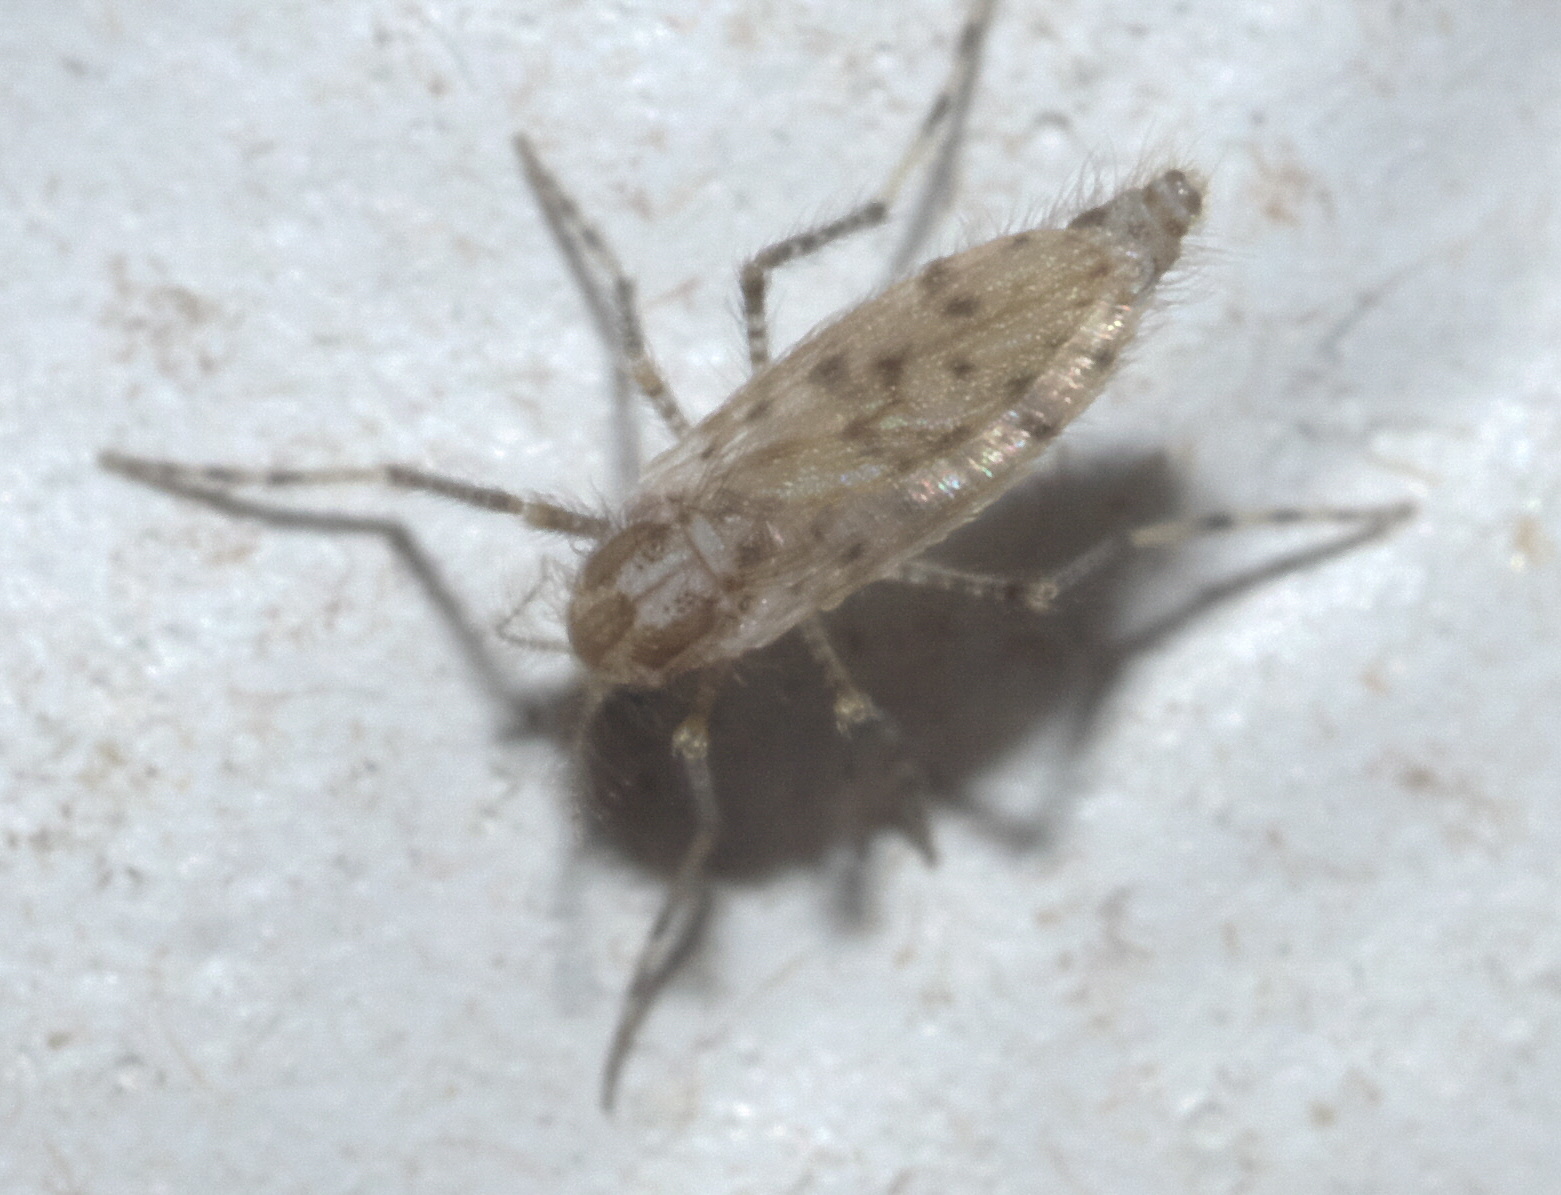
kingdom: Animalia
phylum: Arthropoda
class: Insecta
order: Diptera
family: Chaoboridae
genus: Chaoborus
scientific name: Chaoborus punctipennis
